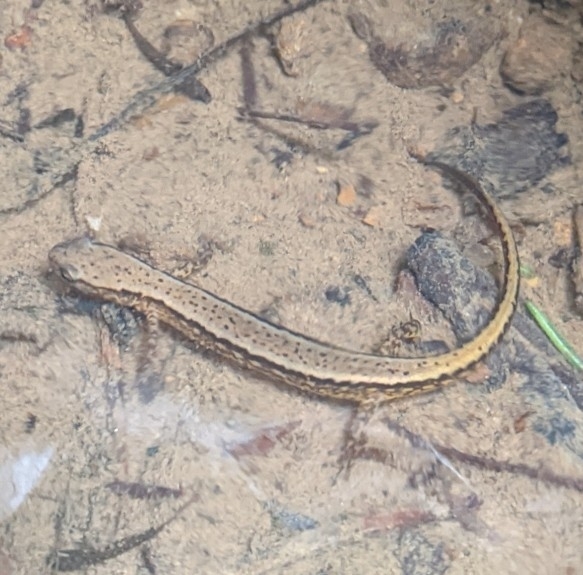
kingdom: Animalia
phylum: Chordata
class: Amphibia
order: Caudata
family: Plethodontidae
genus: Eurycea
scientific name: Eurycea cirrigera
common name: Southern two-lined salamander
